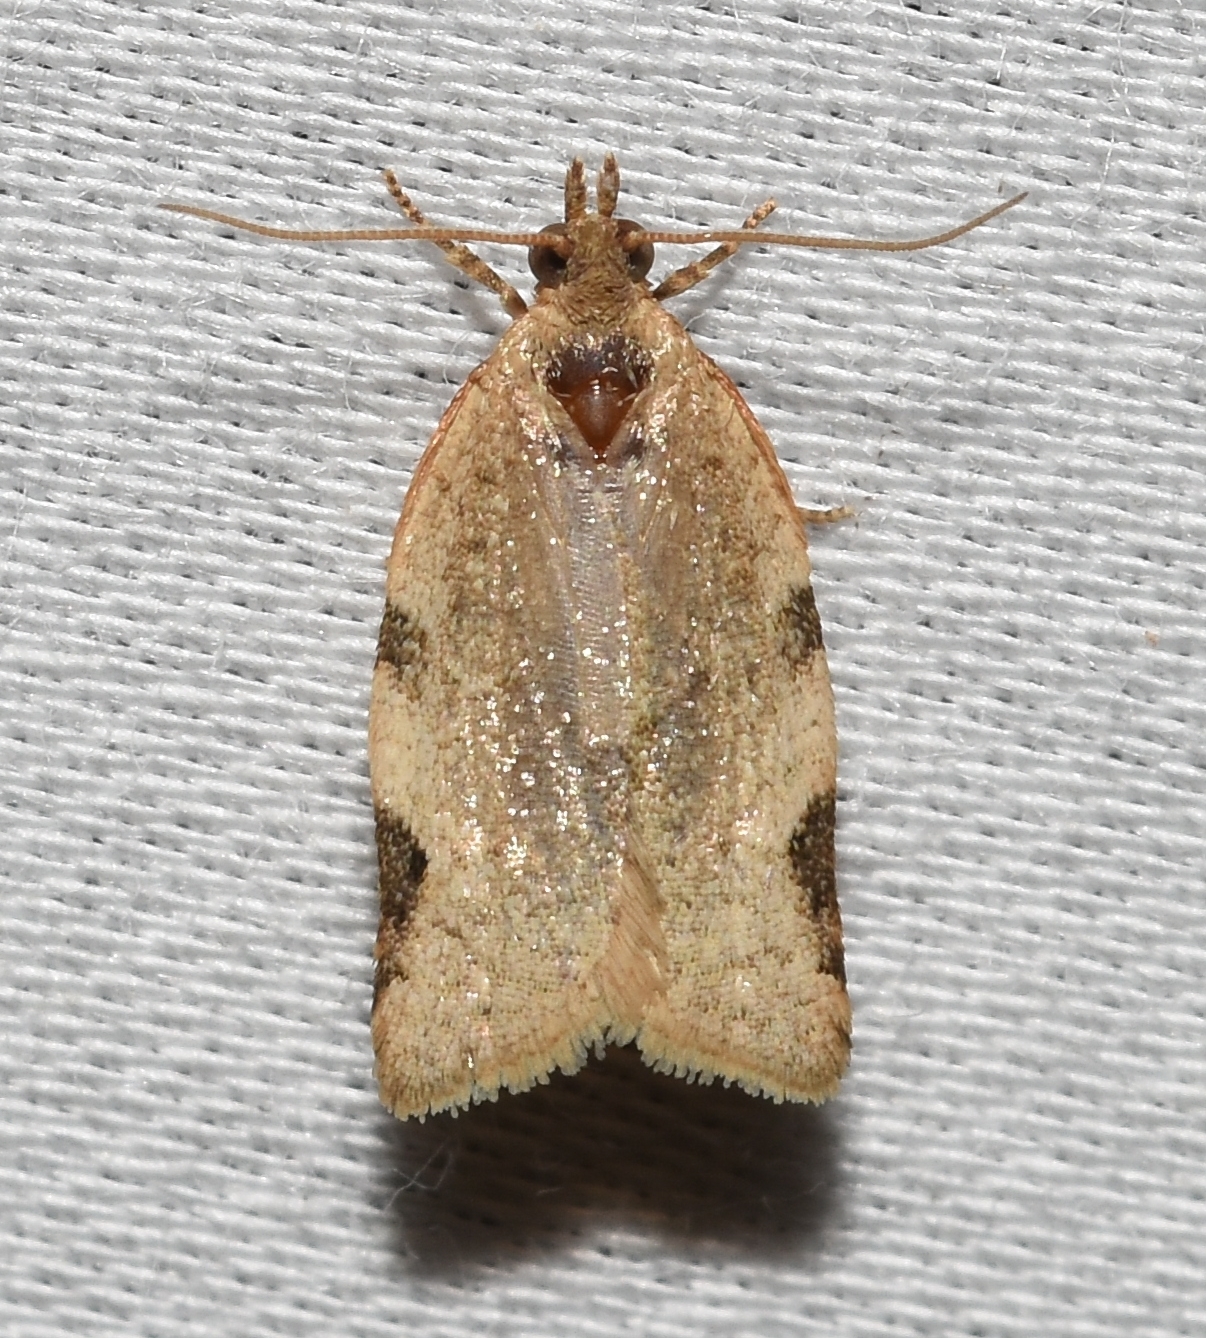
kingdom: Animalia
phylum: Arthropoda
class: Insecta
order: Lepidoptera
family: Tortricidae
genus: Clepsis
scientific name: Clepsis virescana
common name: Greenish apple moth
